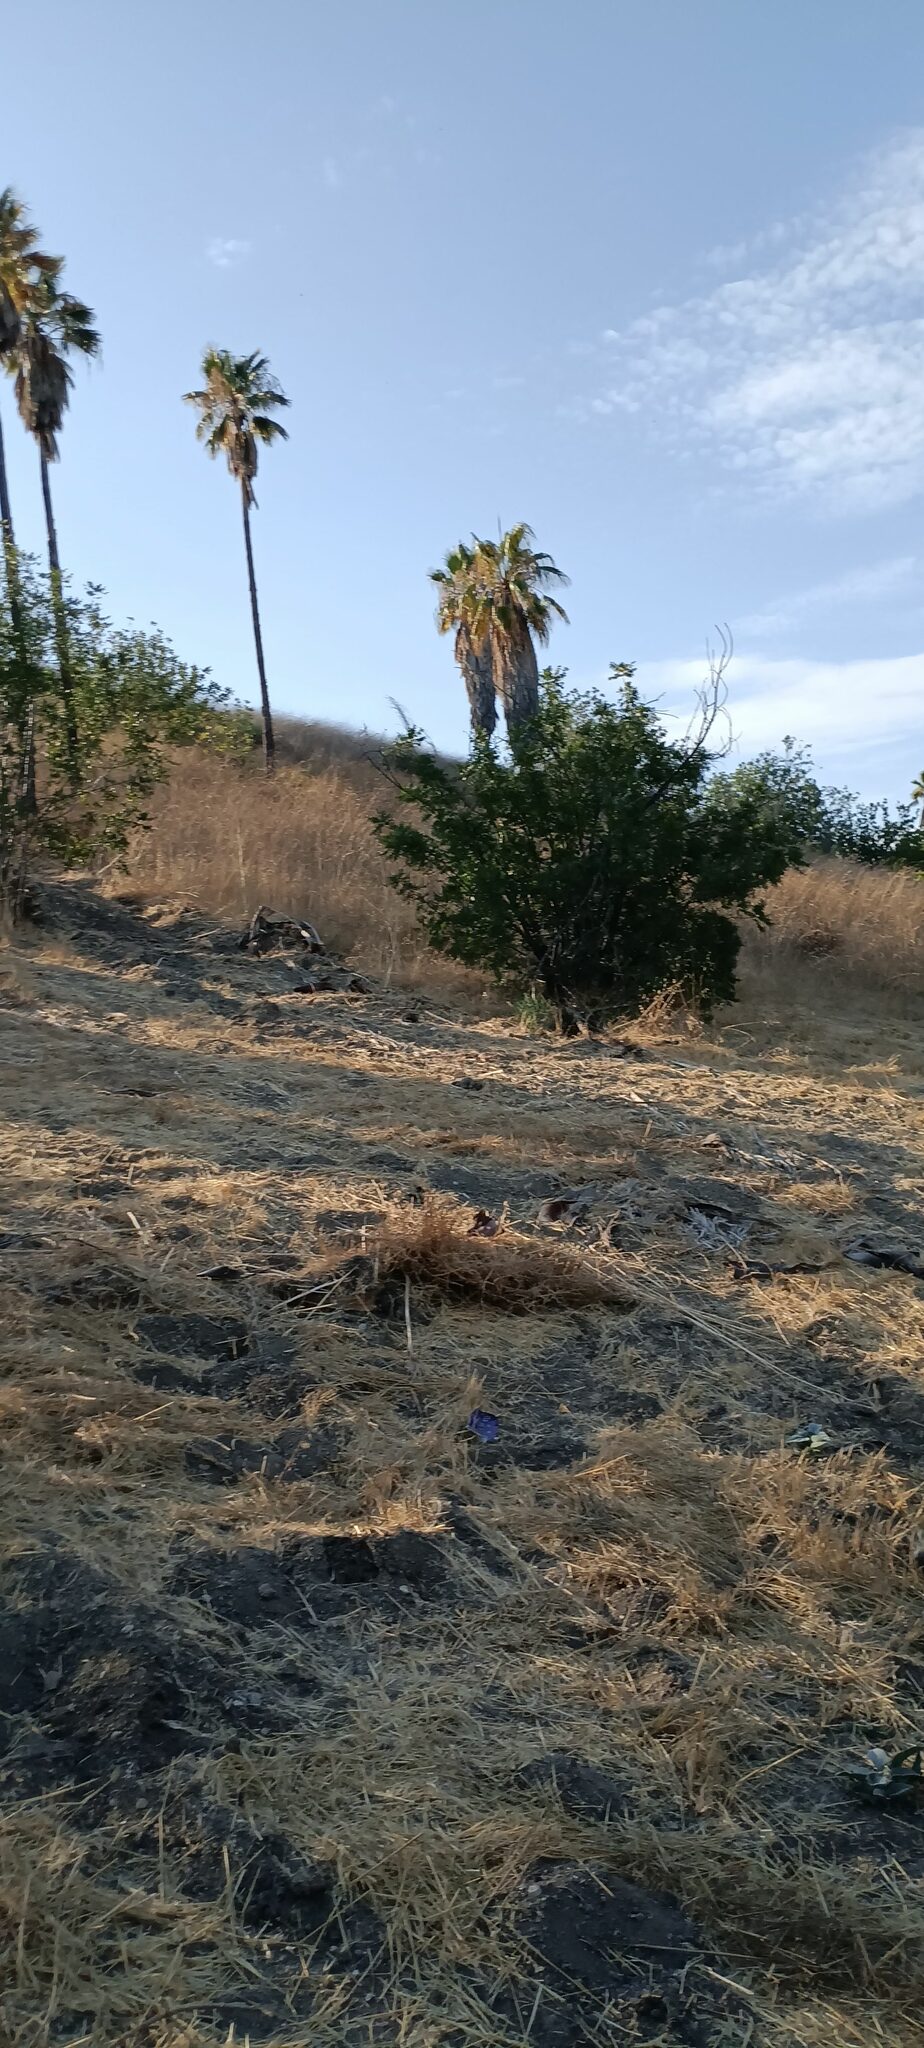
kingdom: Plantae
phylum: Tracheophyta
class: Magnoliopsida
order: Fagales
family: Juglandaceae
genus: Juglans
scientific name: Juglans californica
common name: Southern california black walnut
